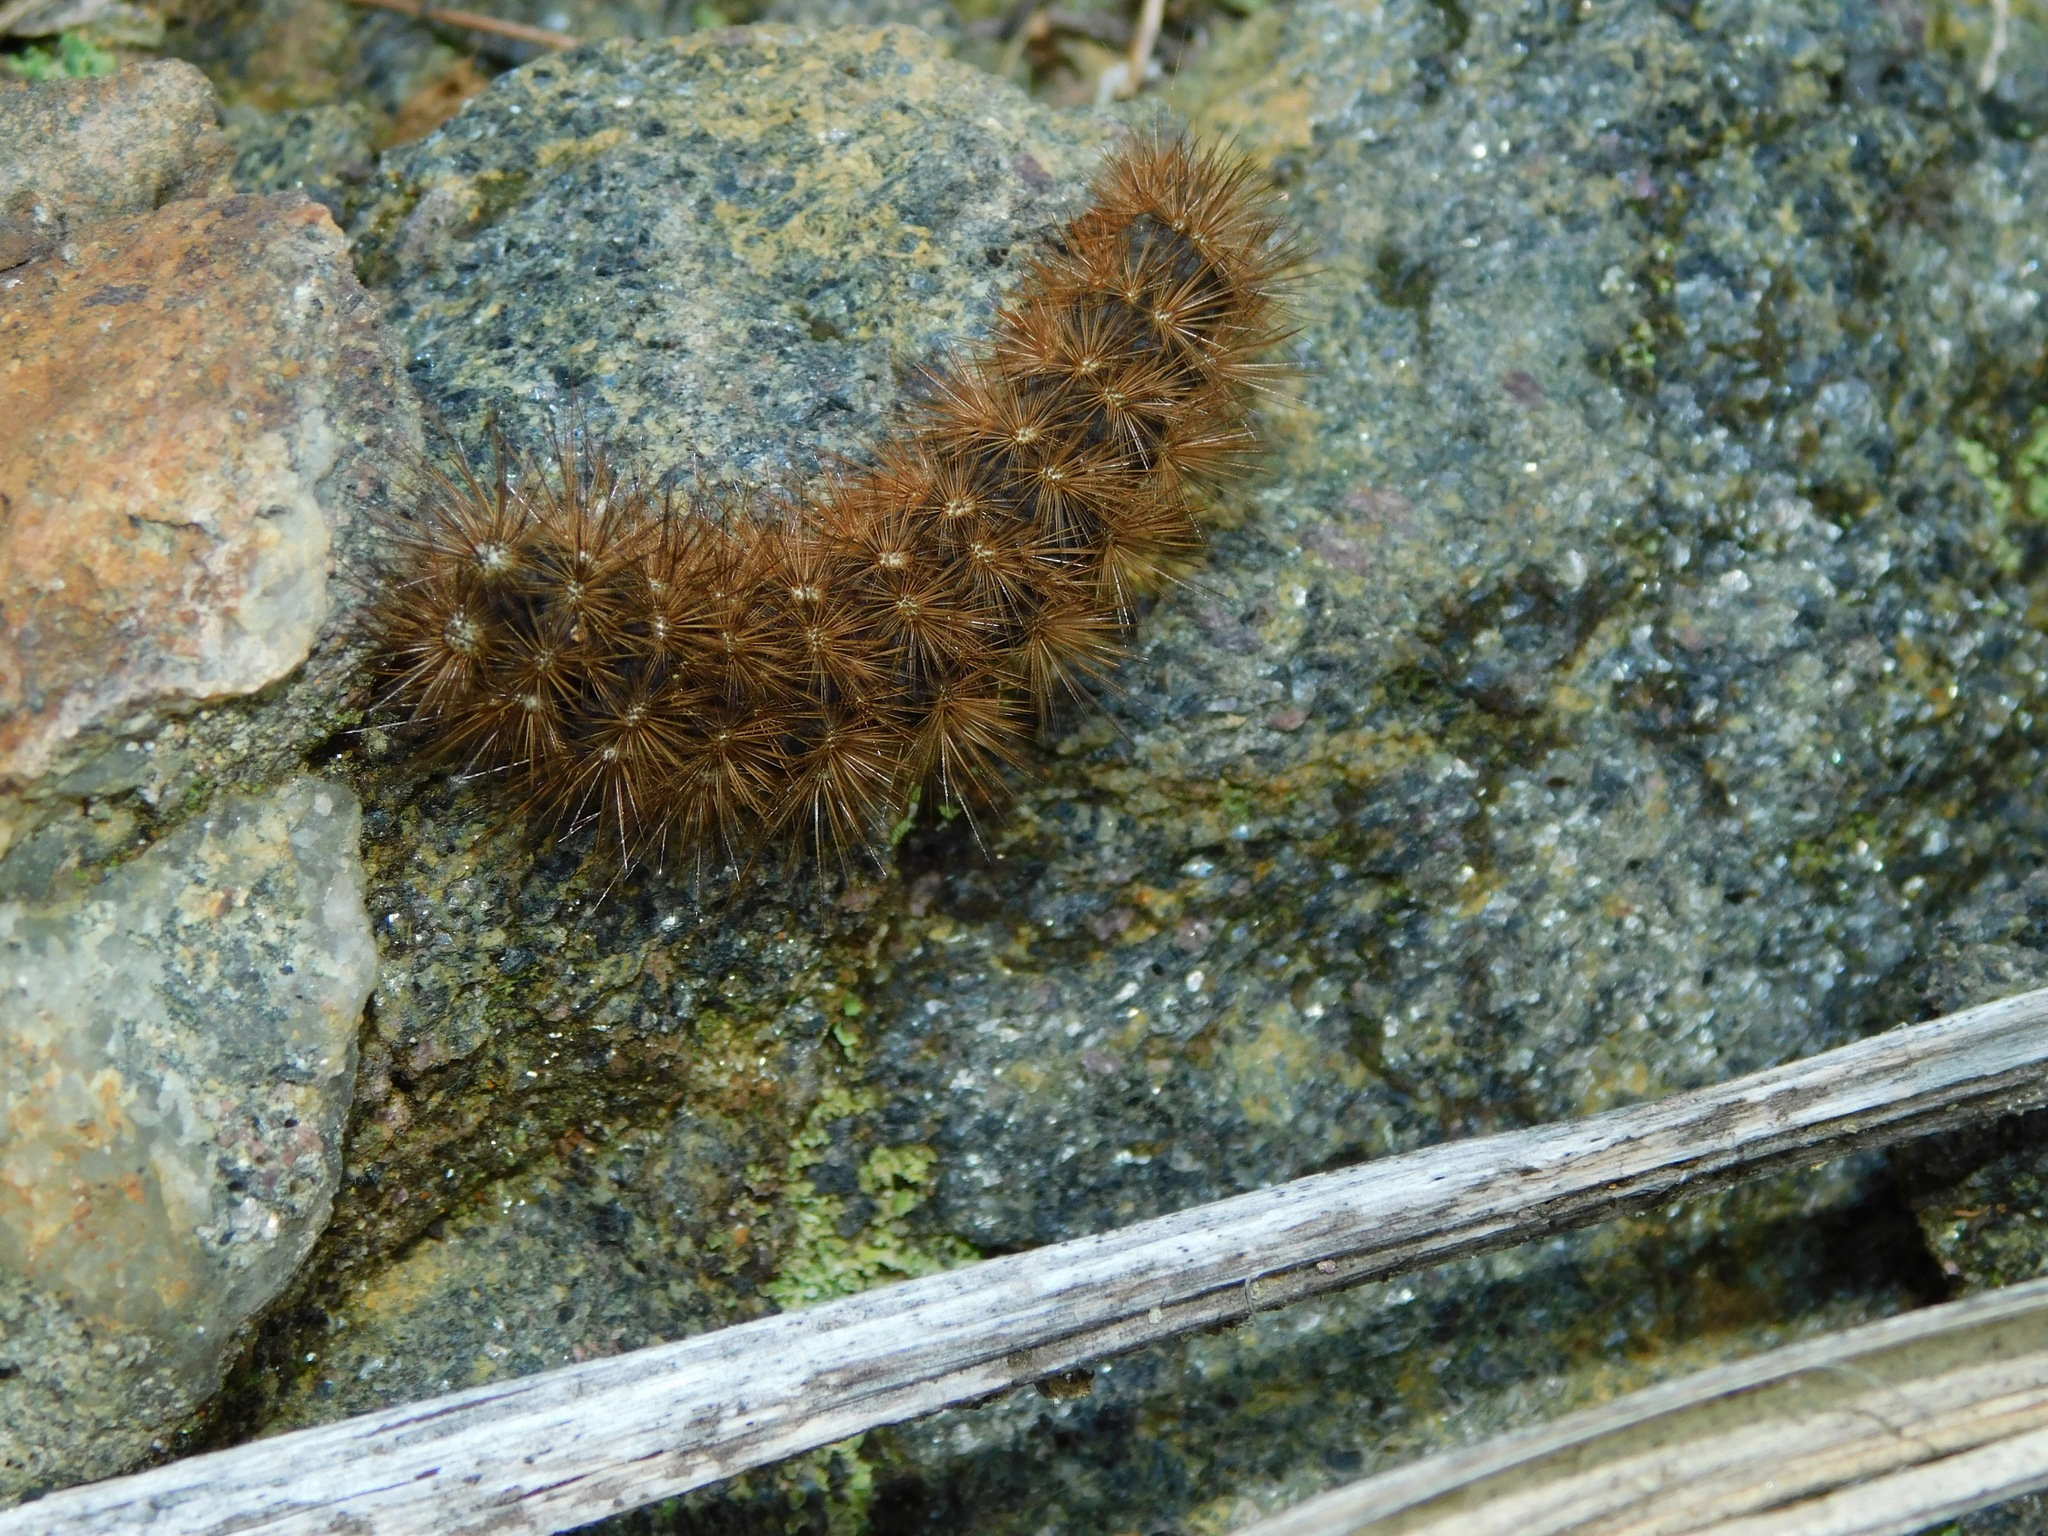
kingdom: Animalia
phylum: Arthropoda
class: Insecta
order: Lepidoptera
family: Erebidae
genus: Grammia
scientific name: Grammia virgo
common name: Virgin tiger moth
